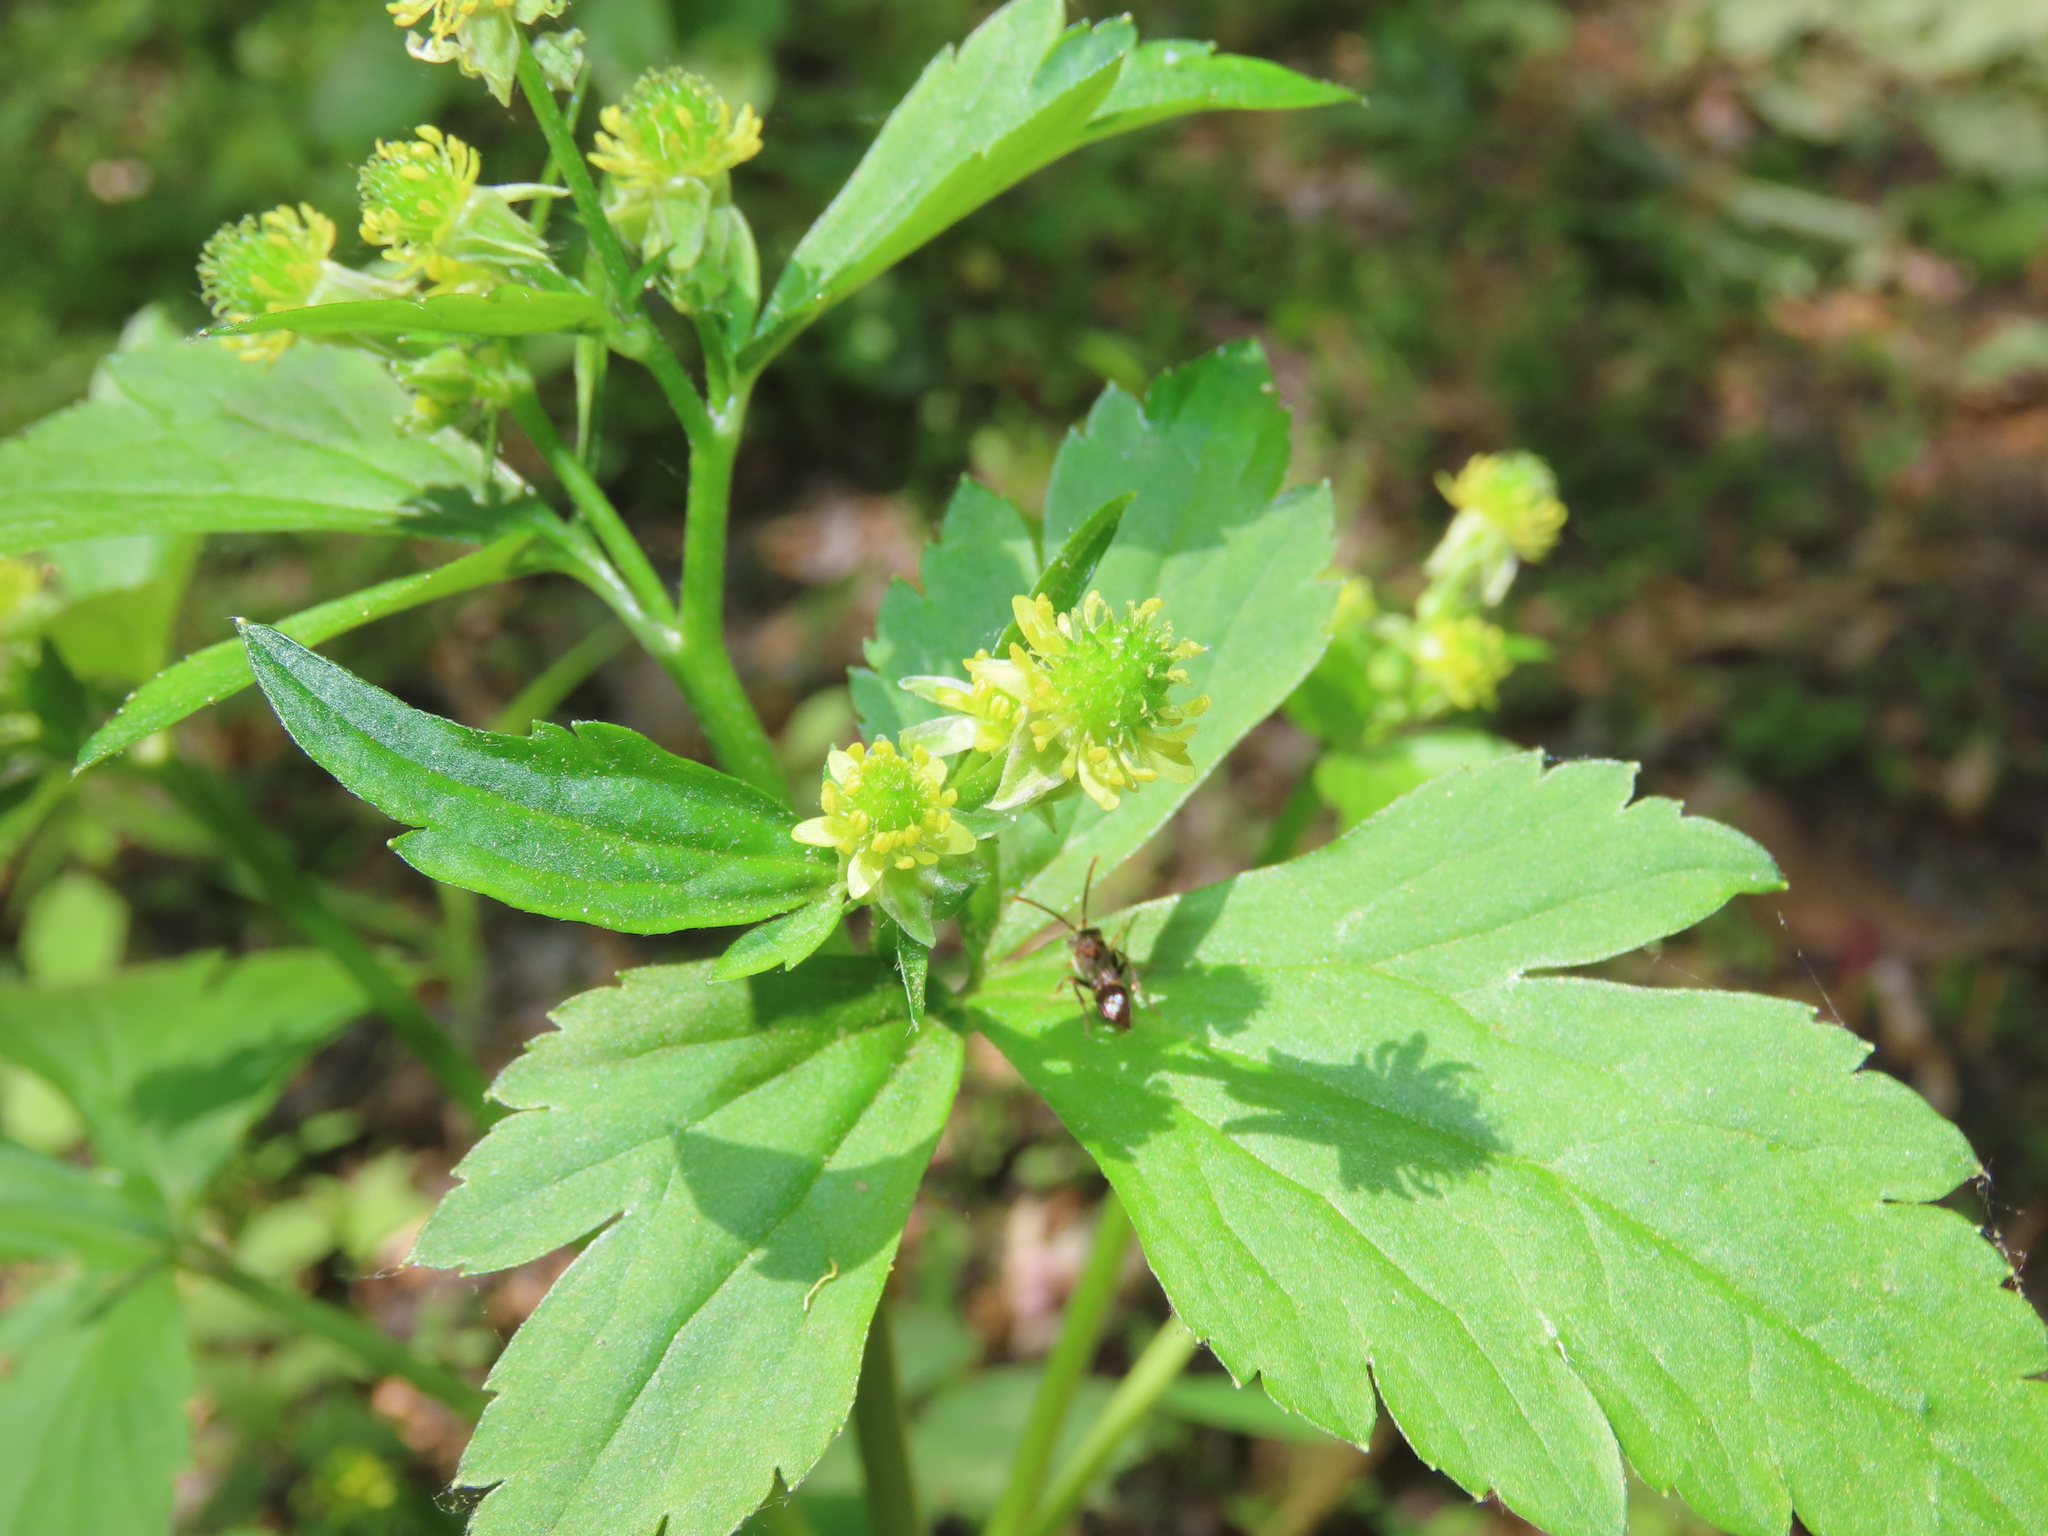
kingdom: Plantae
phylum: Tracheophyta
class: Magnoliopsida
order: Ranunculales
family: Ranunculaceae
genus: Ranunculus
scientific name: Ranunculus recurvatus
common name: Blisterwort
